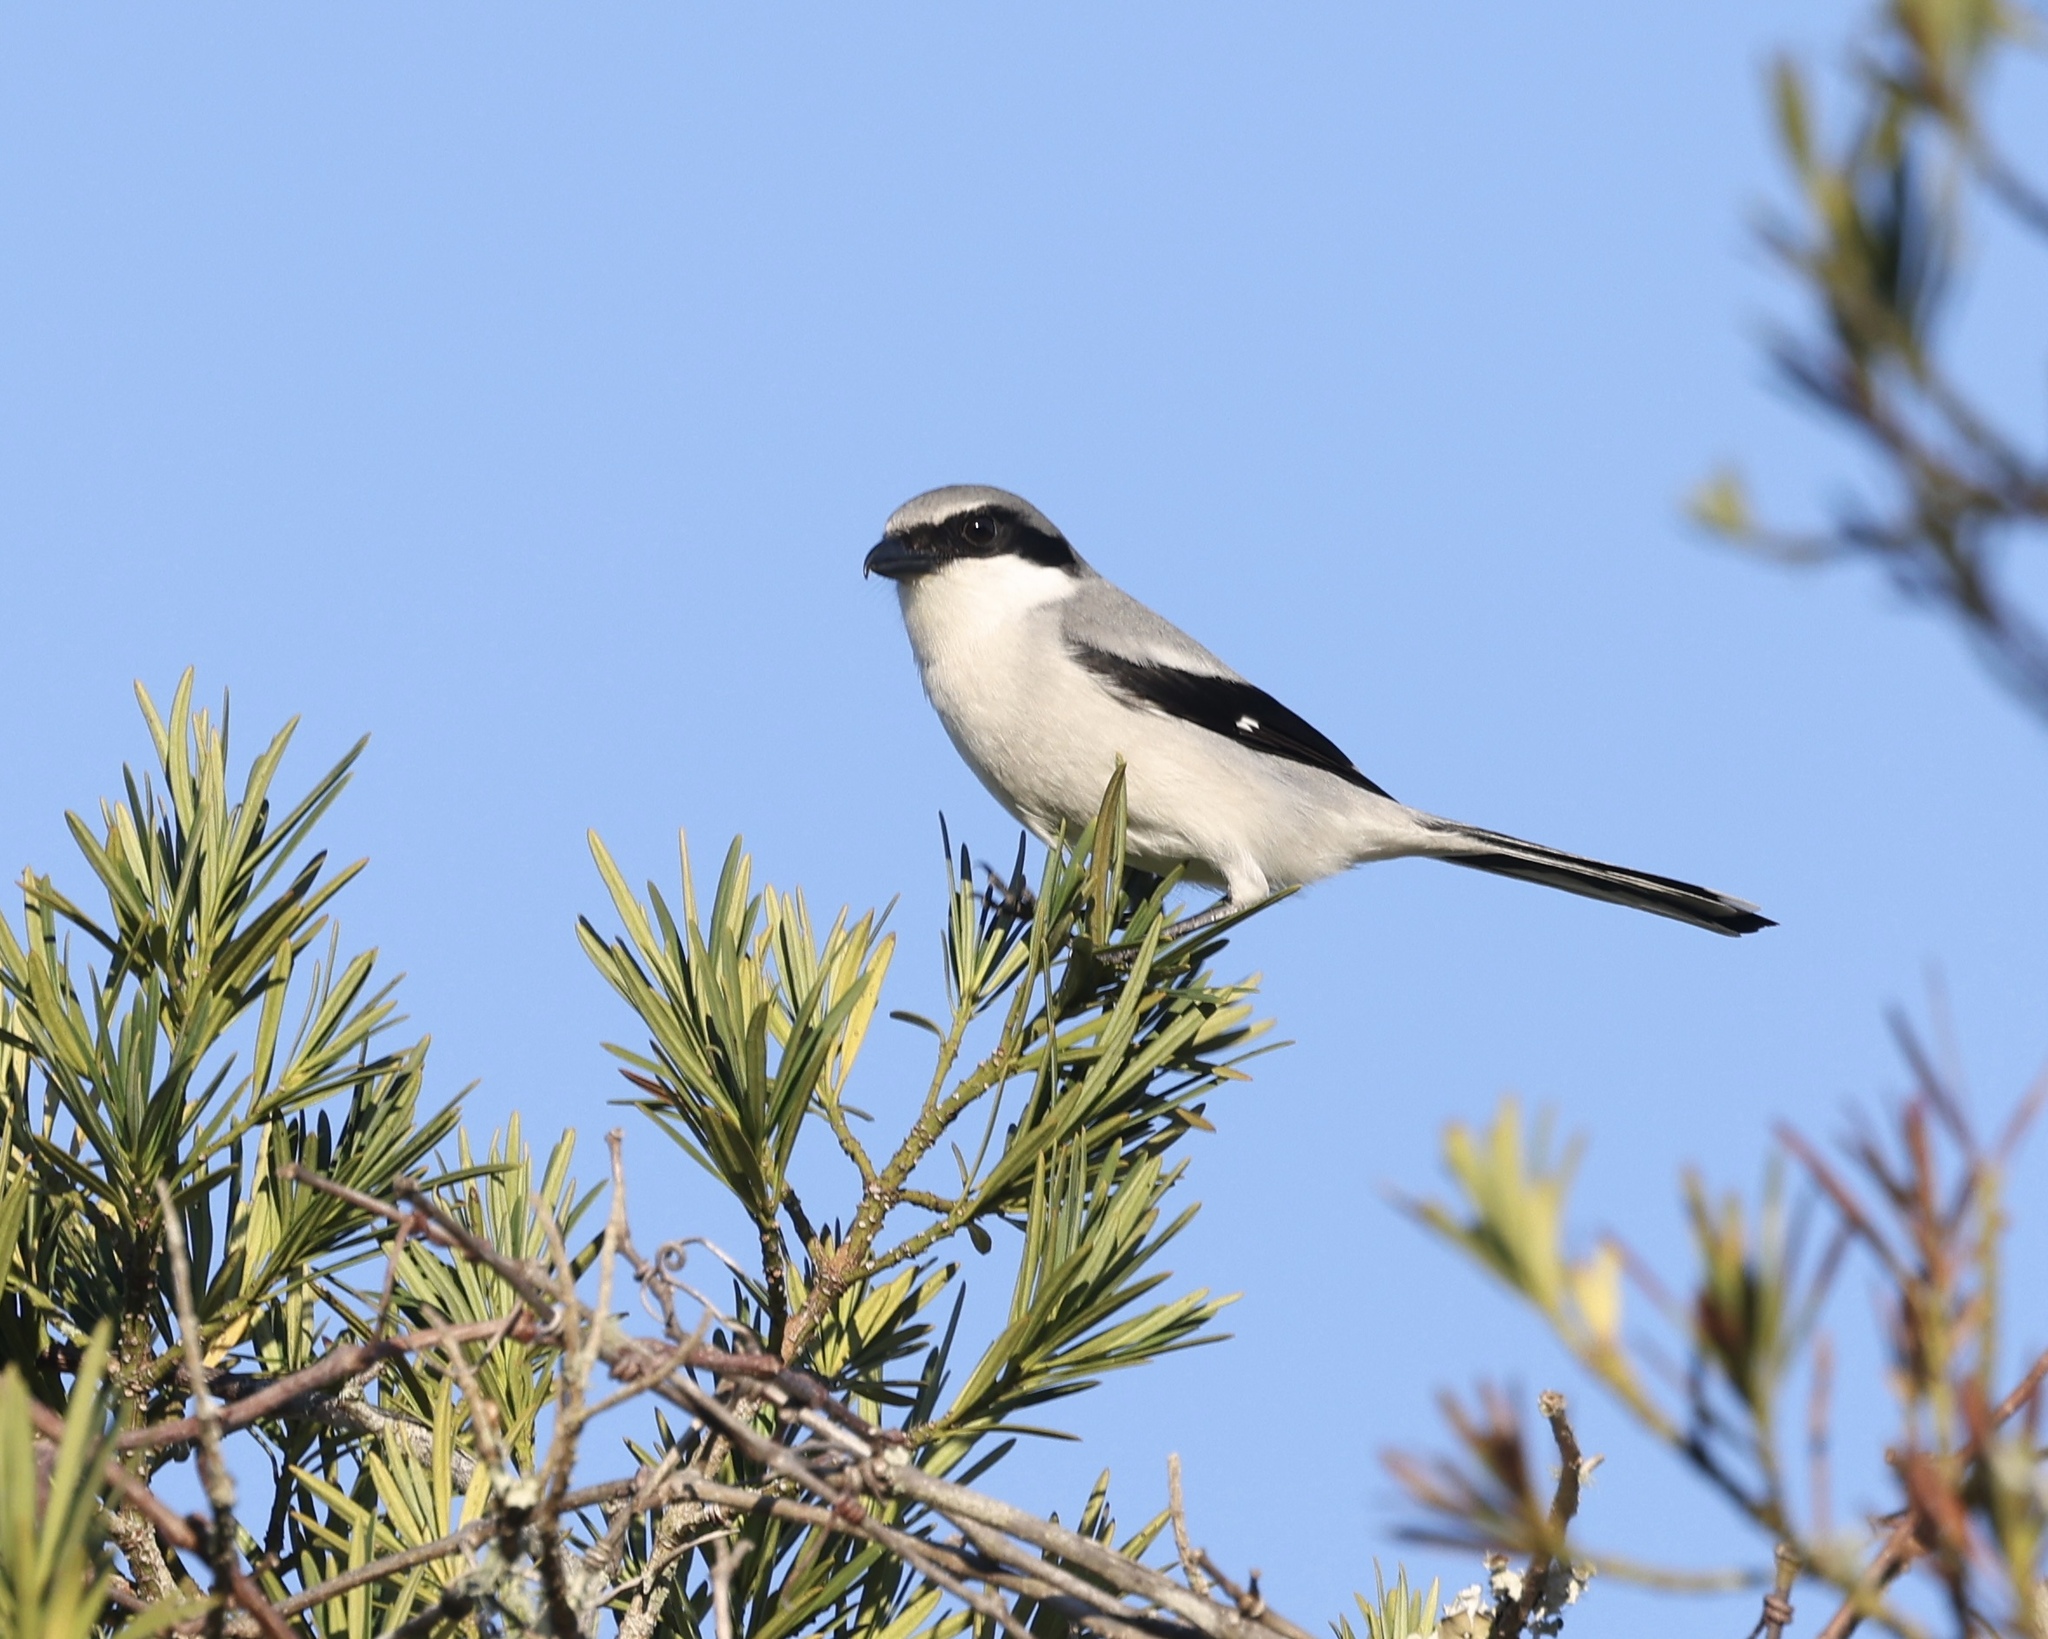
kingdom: Animalia
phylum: Chordata
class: Aves
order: Passeriformes
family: Laniidae
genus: Lanius
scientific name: Lanius ludovicianus
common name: Loggerhead shrike
